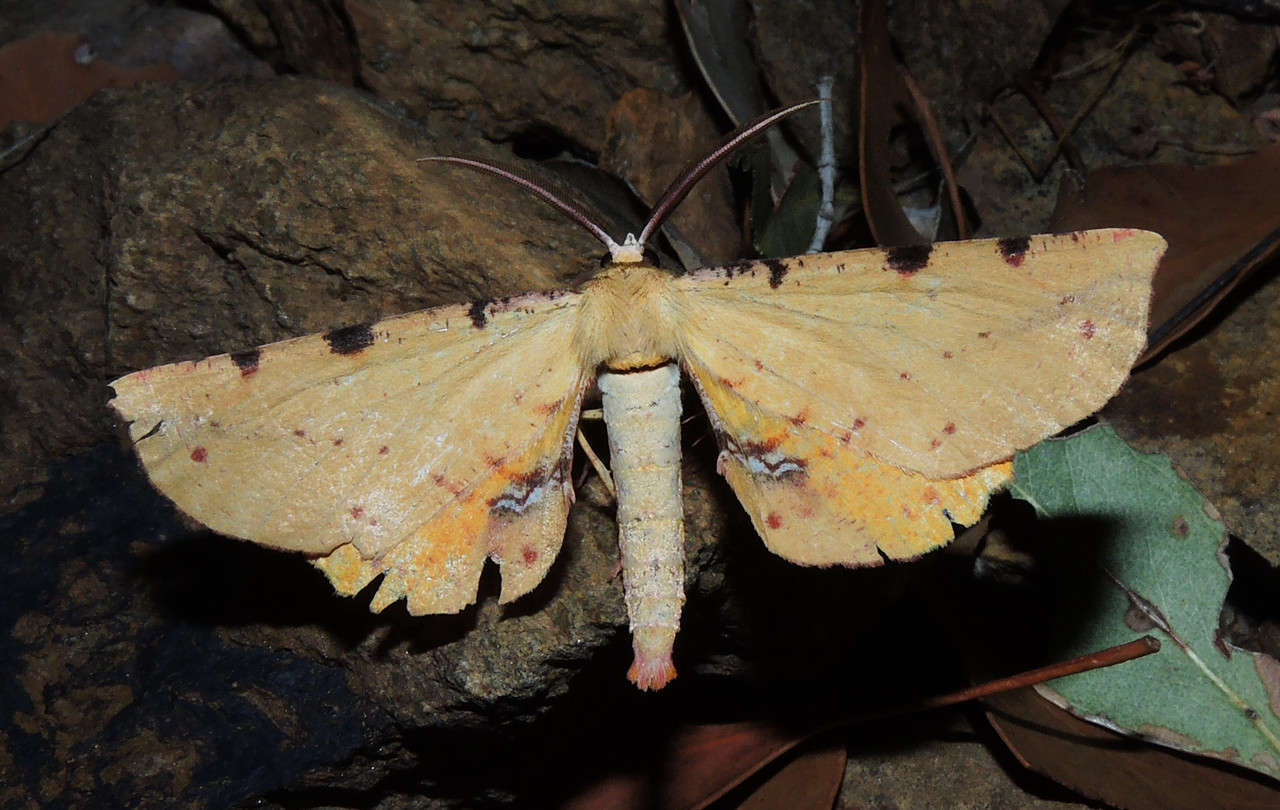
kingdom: Animalia
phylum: Arthropoda
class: Insecta
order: Lepidoptera
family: Geometridae
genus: Parepisparis
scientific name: Parepisparis lutosaria
